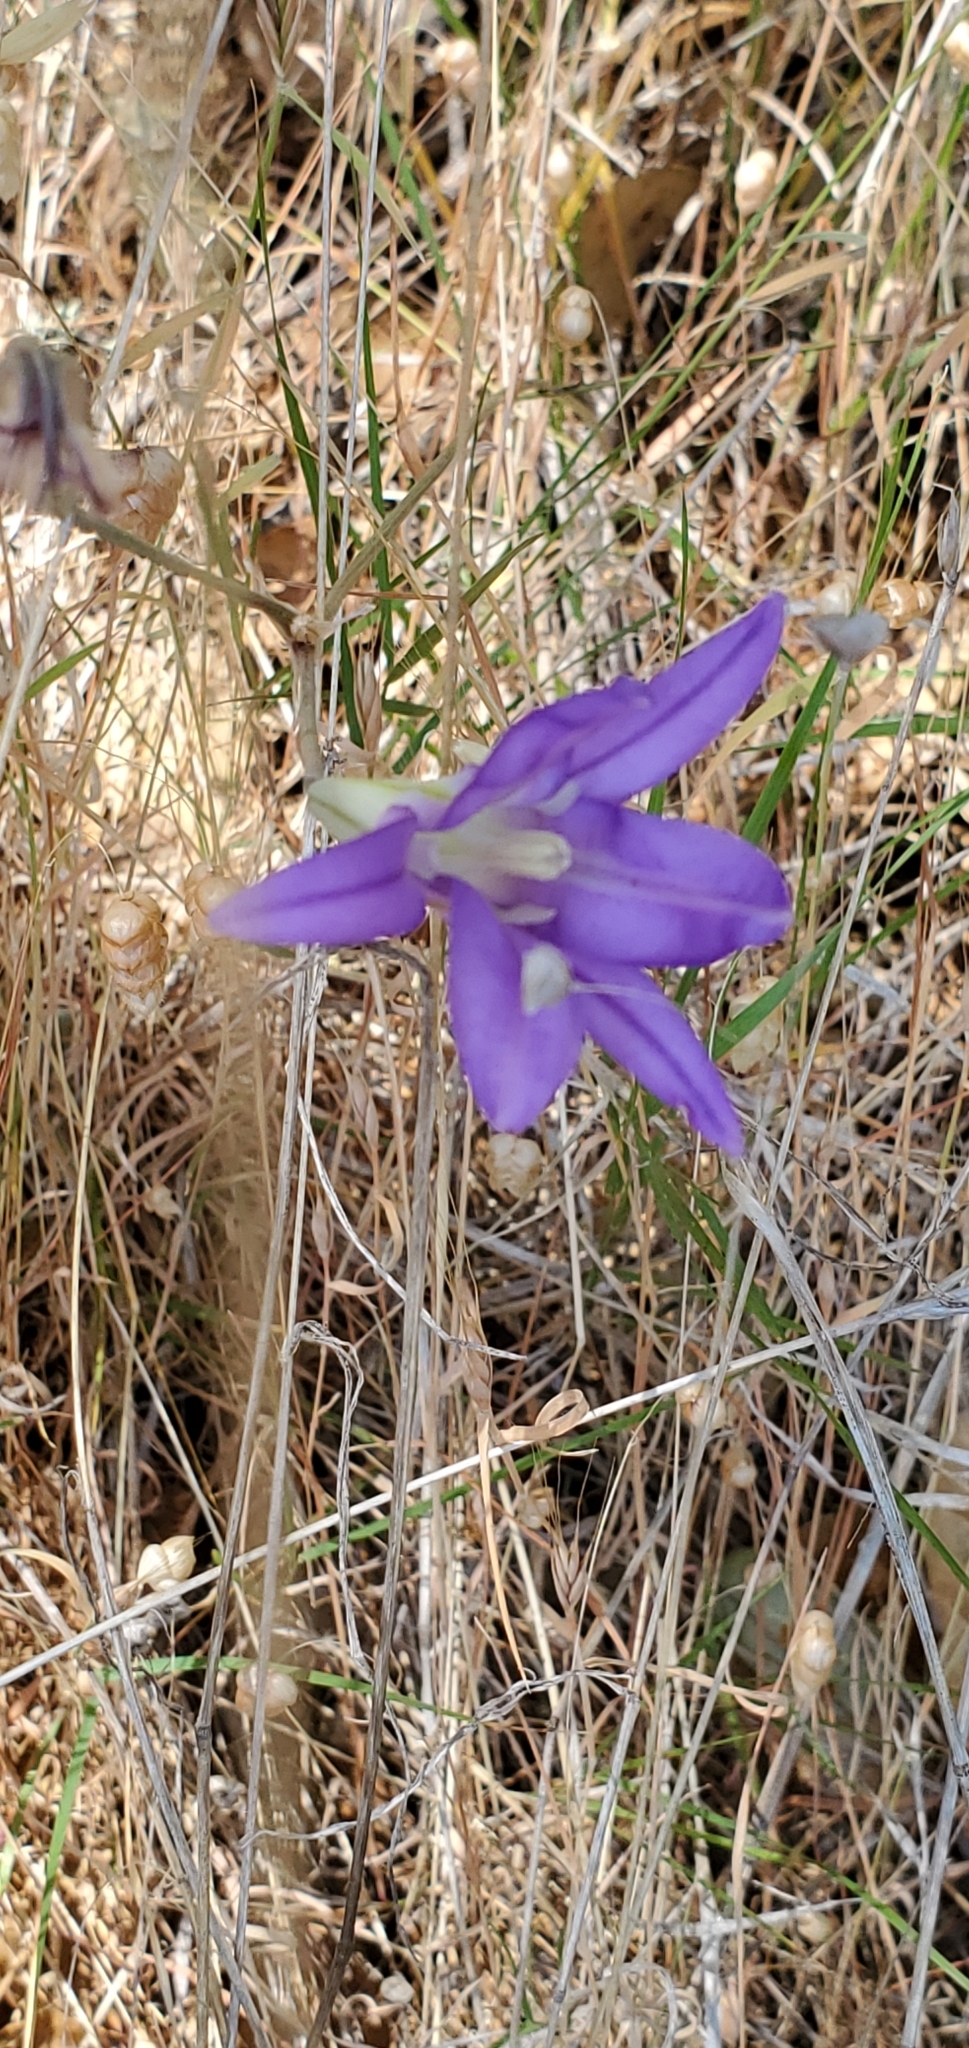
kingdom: Plantae
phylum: Tracheophyta
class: Liliopsida
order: Asparagales
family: Asparagaceae
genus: Brodiaea
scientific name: Brodiaea elegans
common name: Elegant cluster-lily
